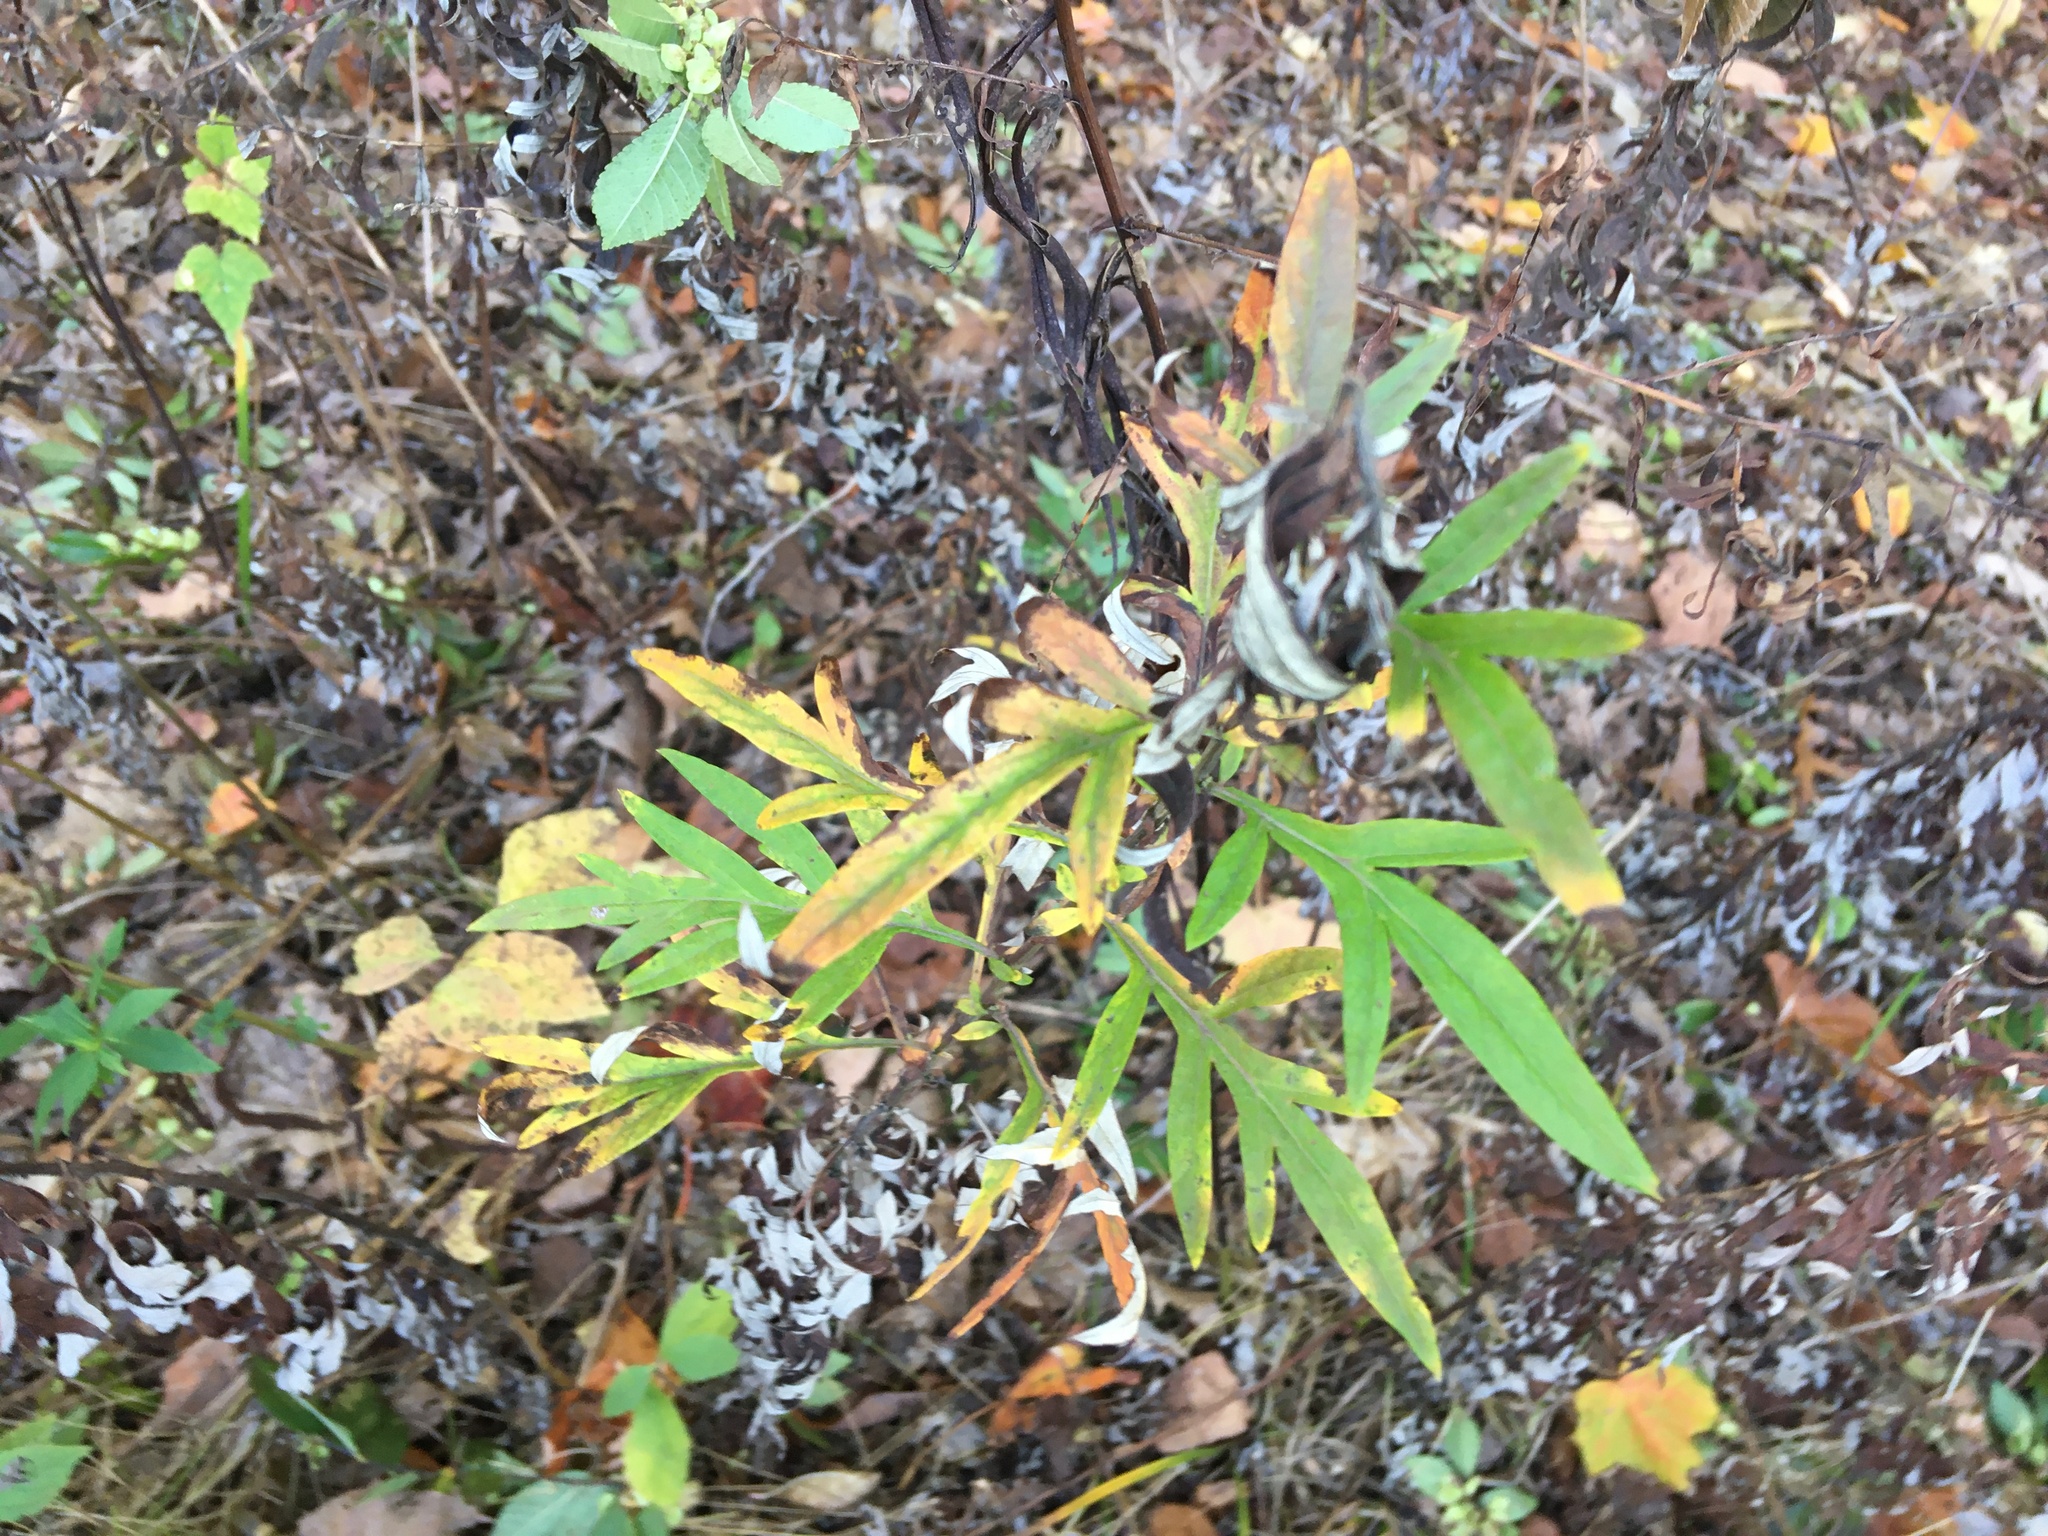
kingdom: Plantae
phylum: Tracheophyta
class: Magnoliopsida
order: Asterales
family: Asteraceae
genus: Artemisia
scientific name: Artemisia vulgaris
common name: Mugwort
